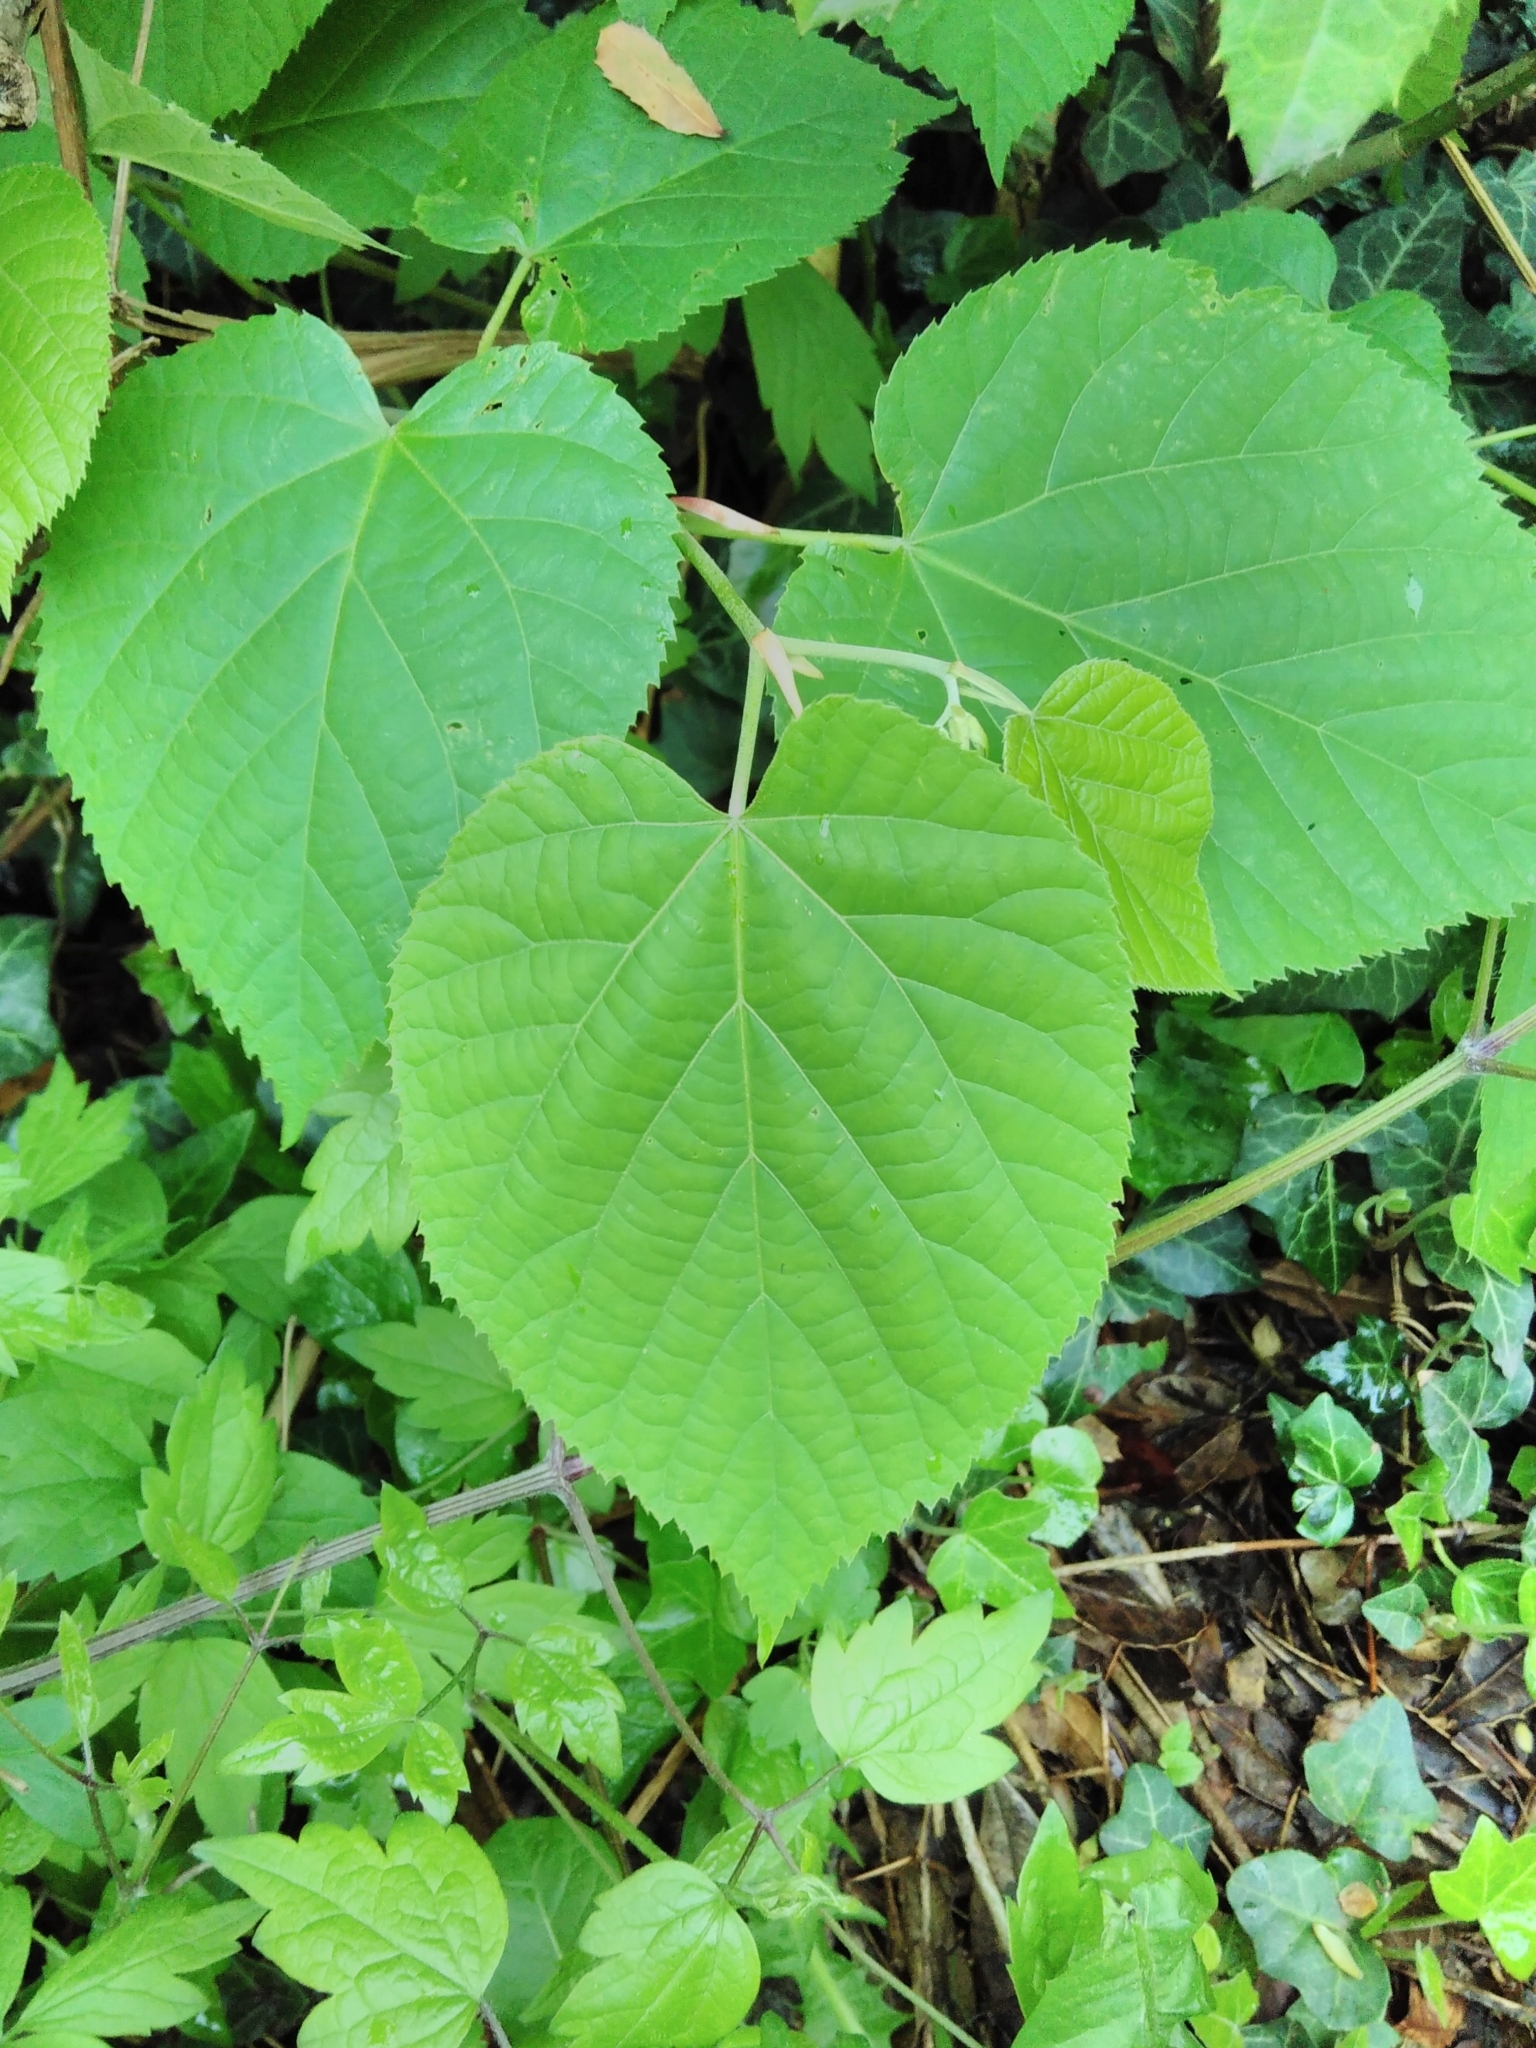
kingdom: Plantae
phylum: Tracheophyta
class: Magnoliopsida
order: Malvales
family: Malvaceae
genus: Tilia
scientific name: Tilia platyphyllos
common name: Large-leaved lime
